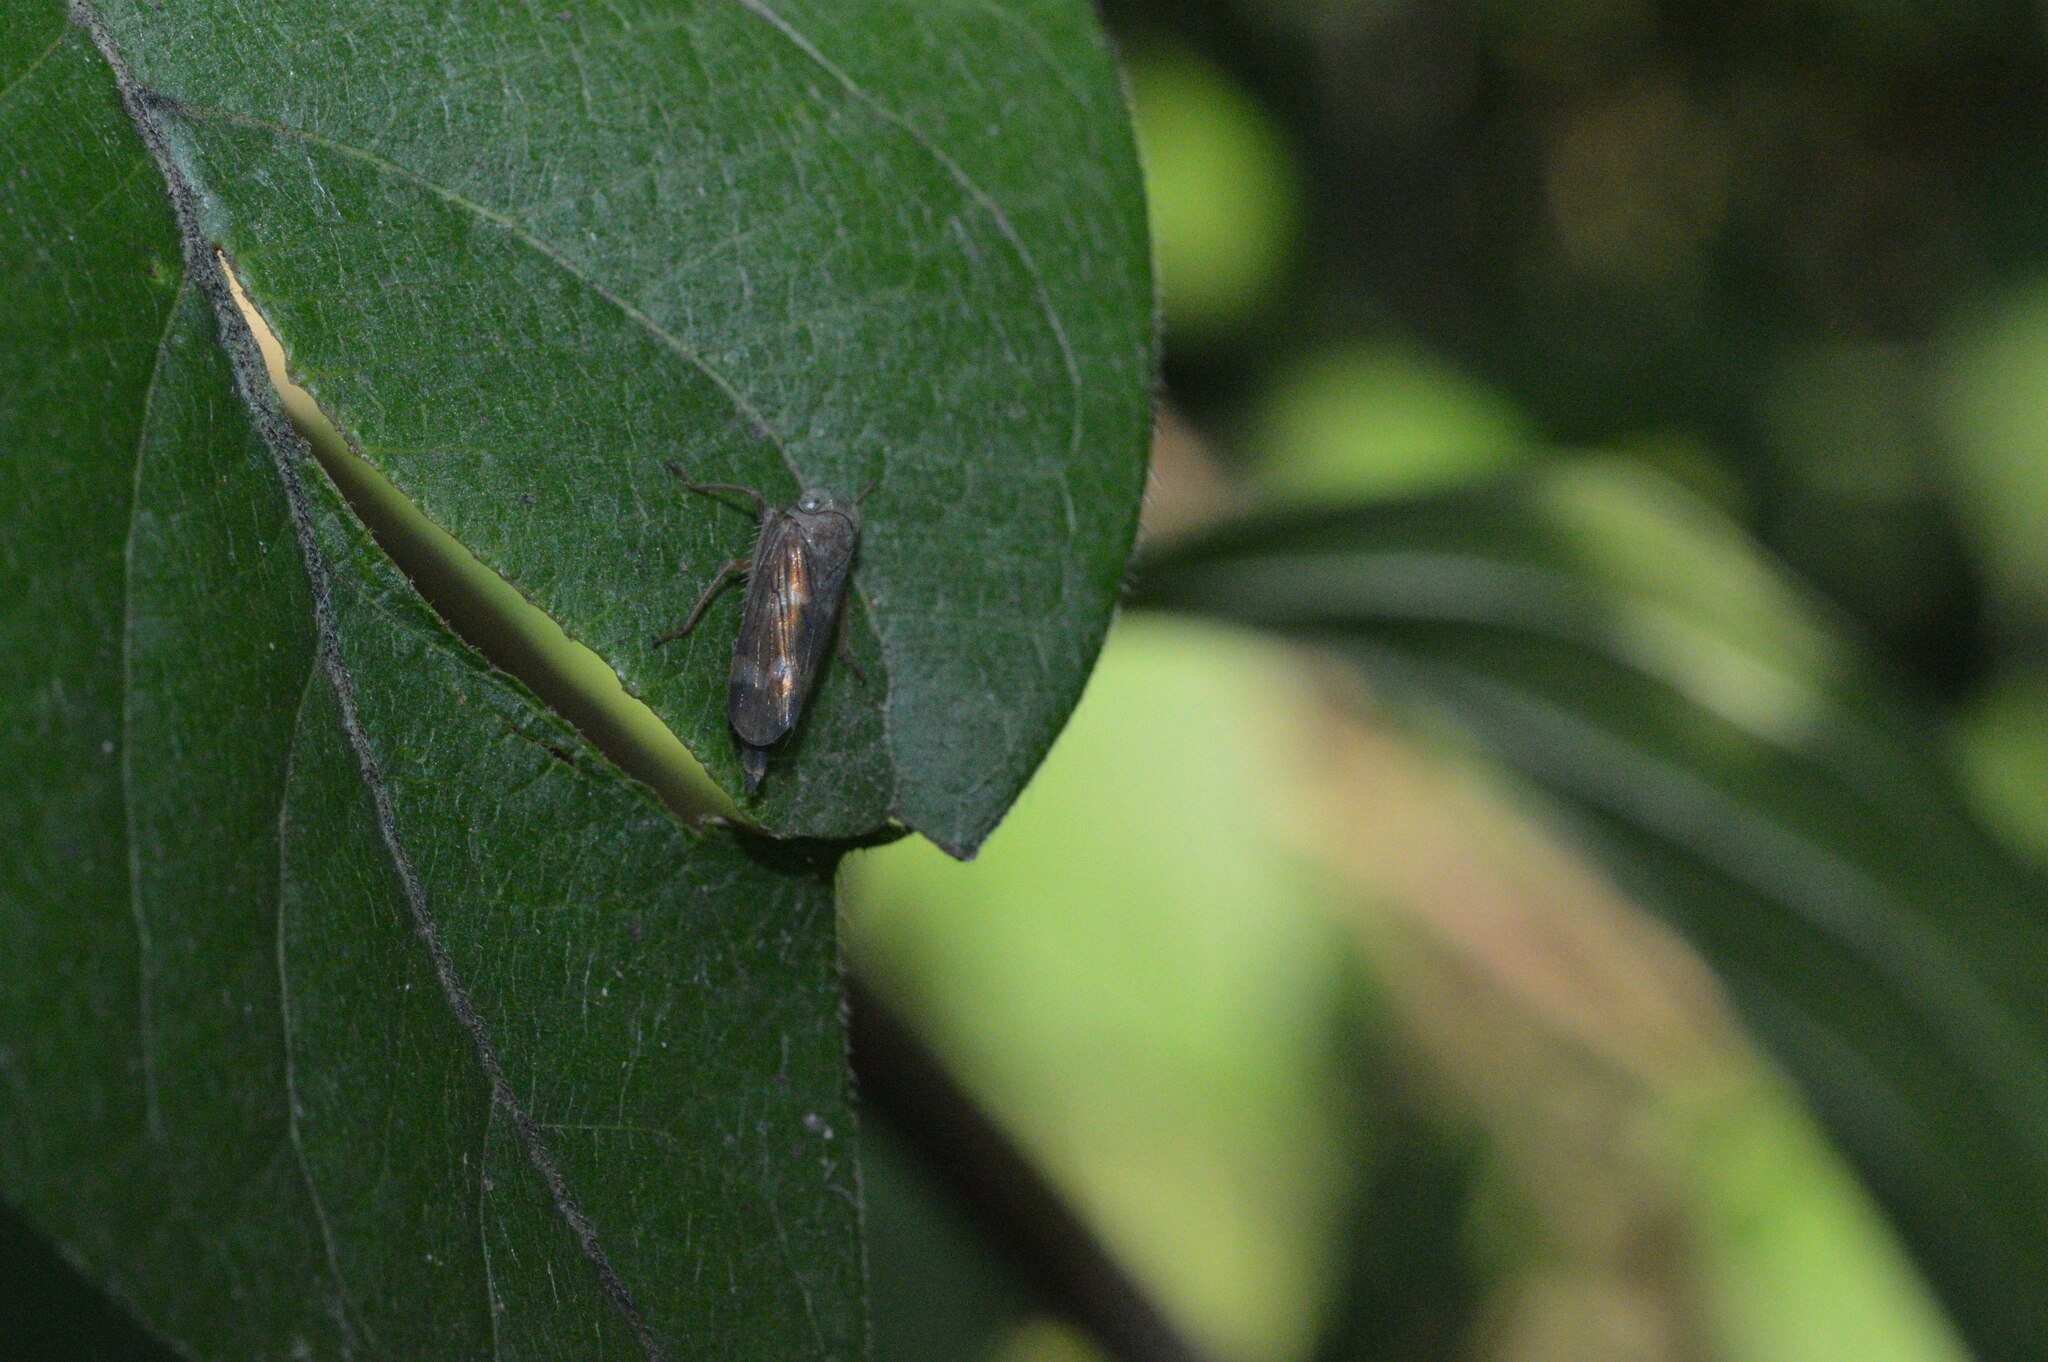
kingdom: Animalia
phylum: Arthropoda
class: Insecta
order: Hemiptera
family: Cicadellidae
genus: Jikradia
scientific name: Jikradia olitoria
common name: Coppery leafhopper
